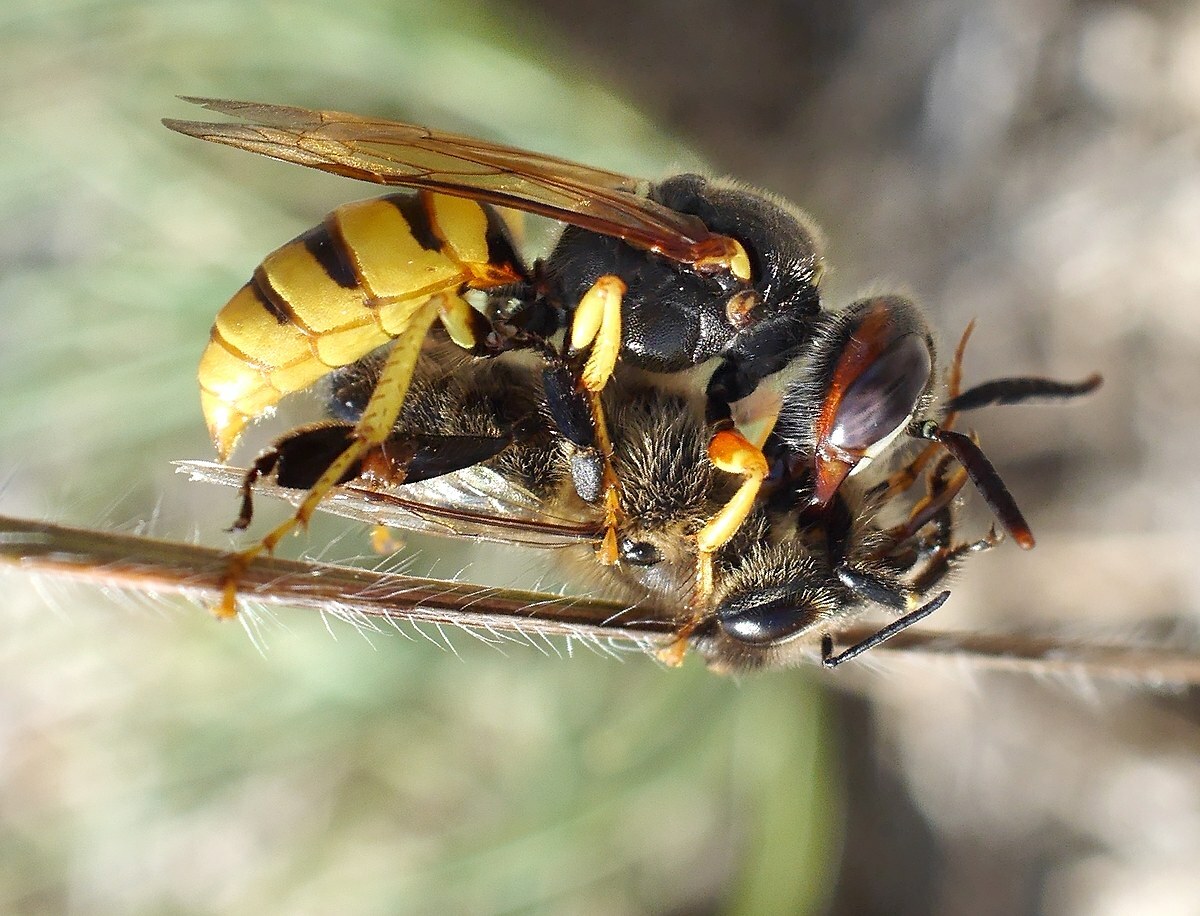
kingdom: Animalia
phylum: Arthropoda
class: Insecta
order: Hymenoptera
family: Crabronidae
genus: Philanthus
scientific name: Philanthus triangulum
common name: Bee wolf
